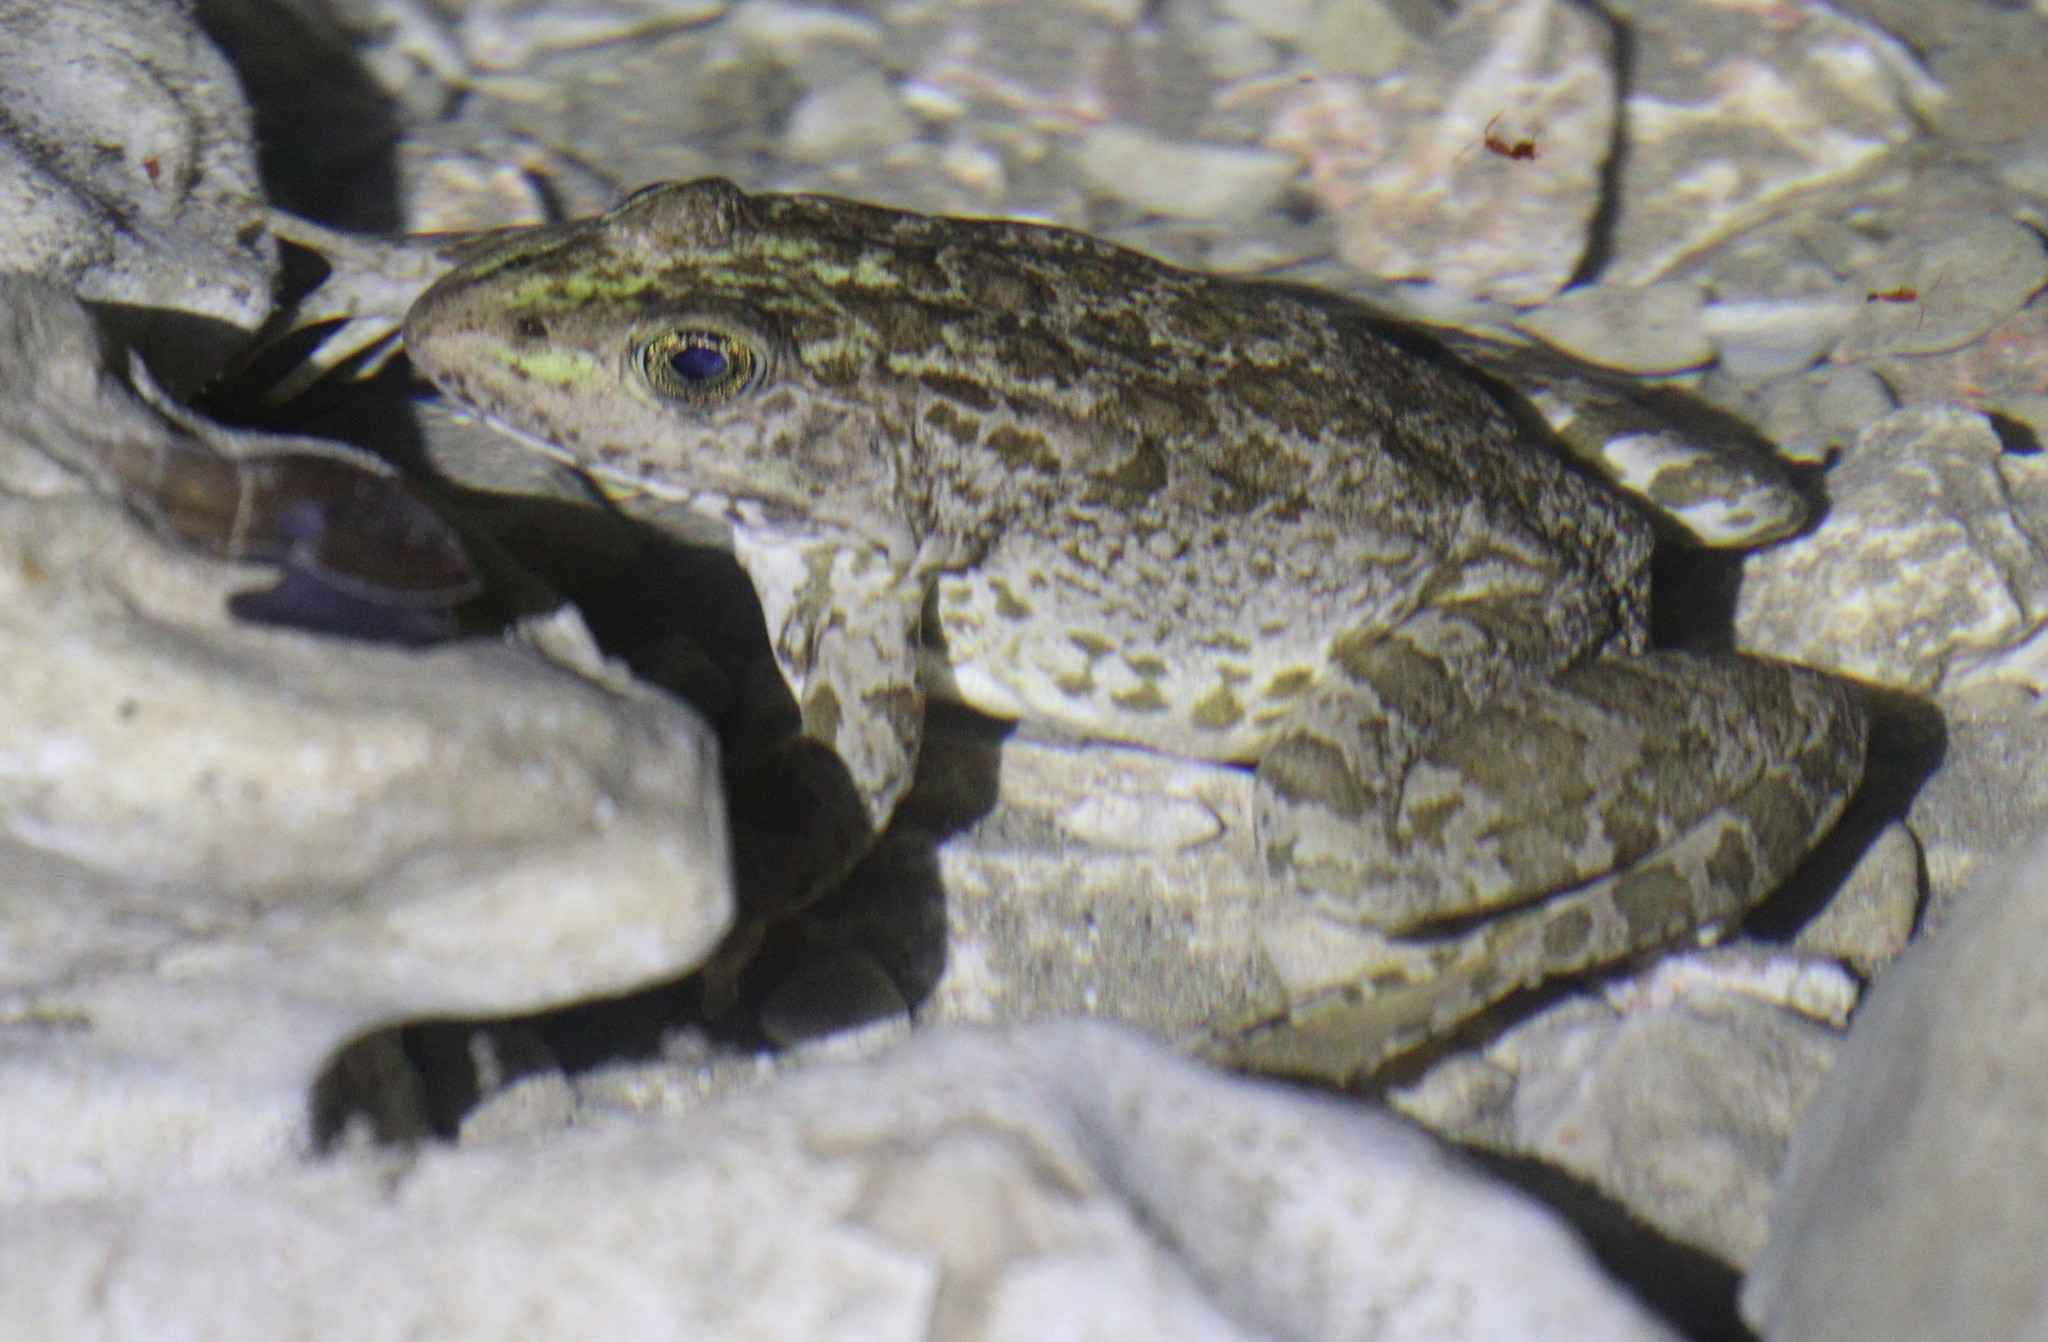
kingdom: Animalia
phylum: Chordata
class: Amphibia
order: Anura
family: Ranidae
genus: Pelophylax
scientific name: Pelophylax ridibundus
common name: Marsh frog
